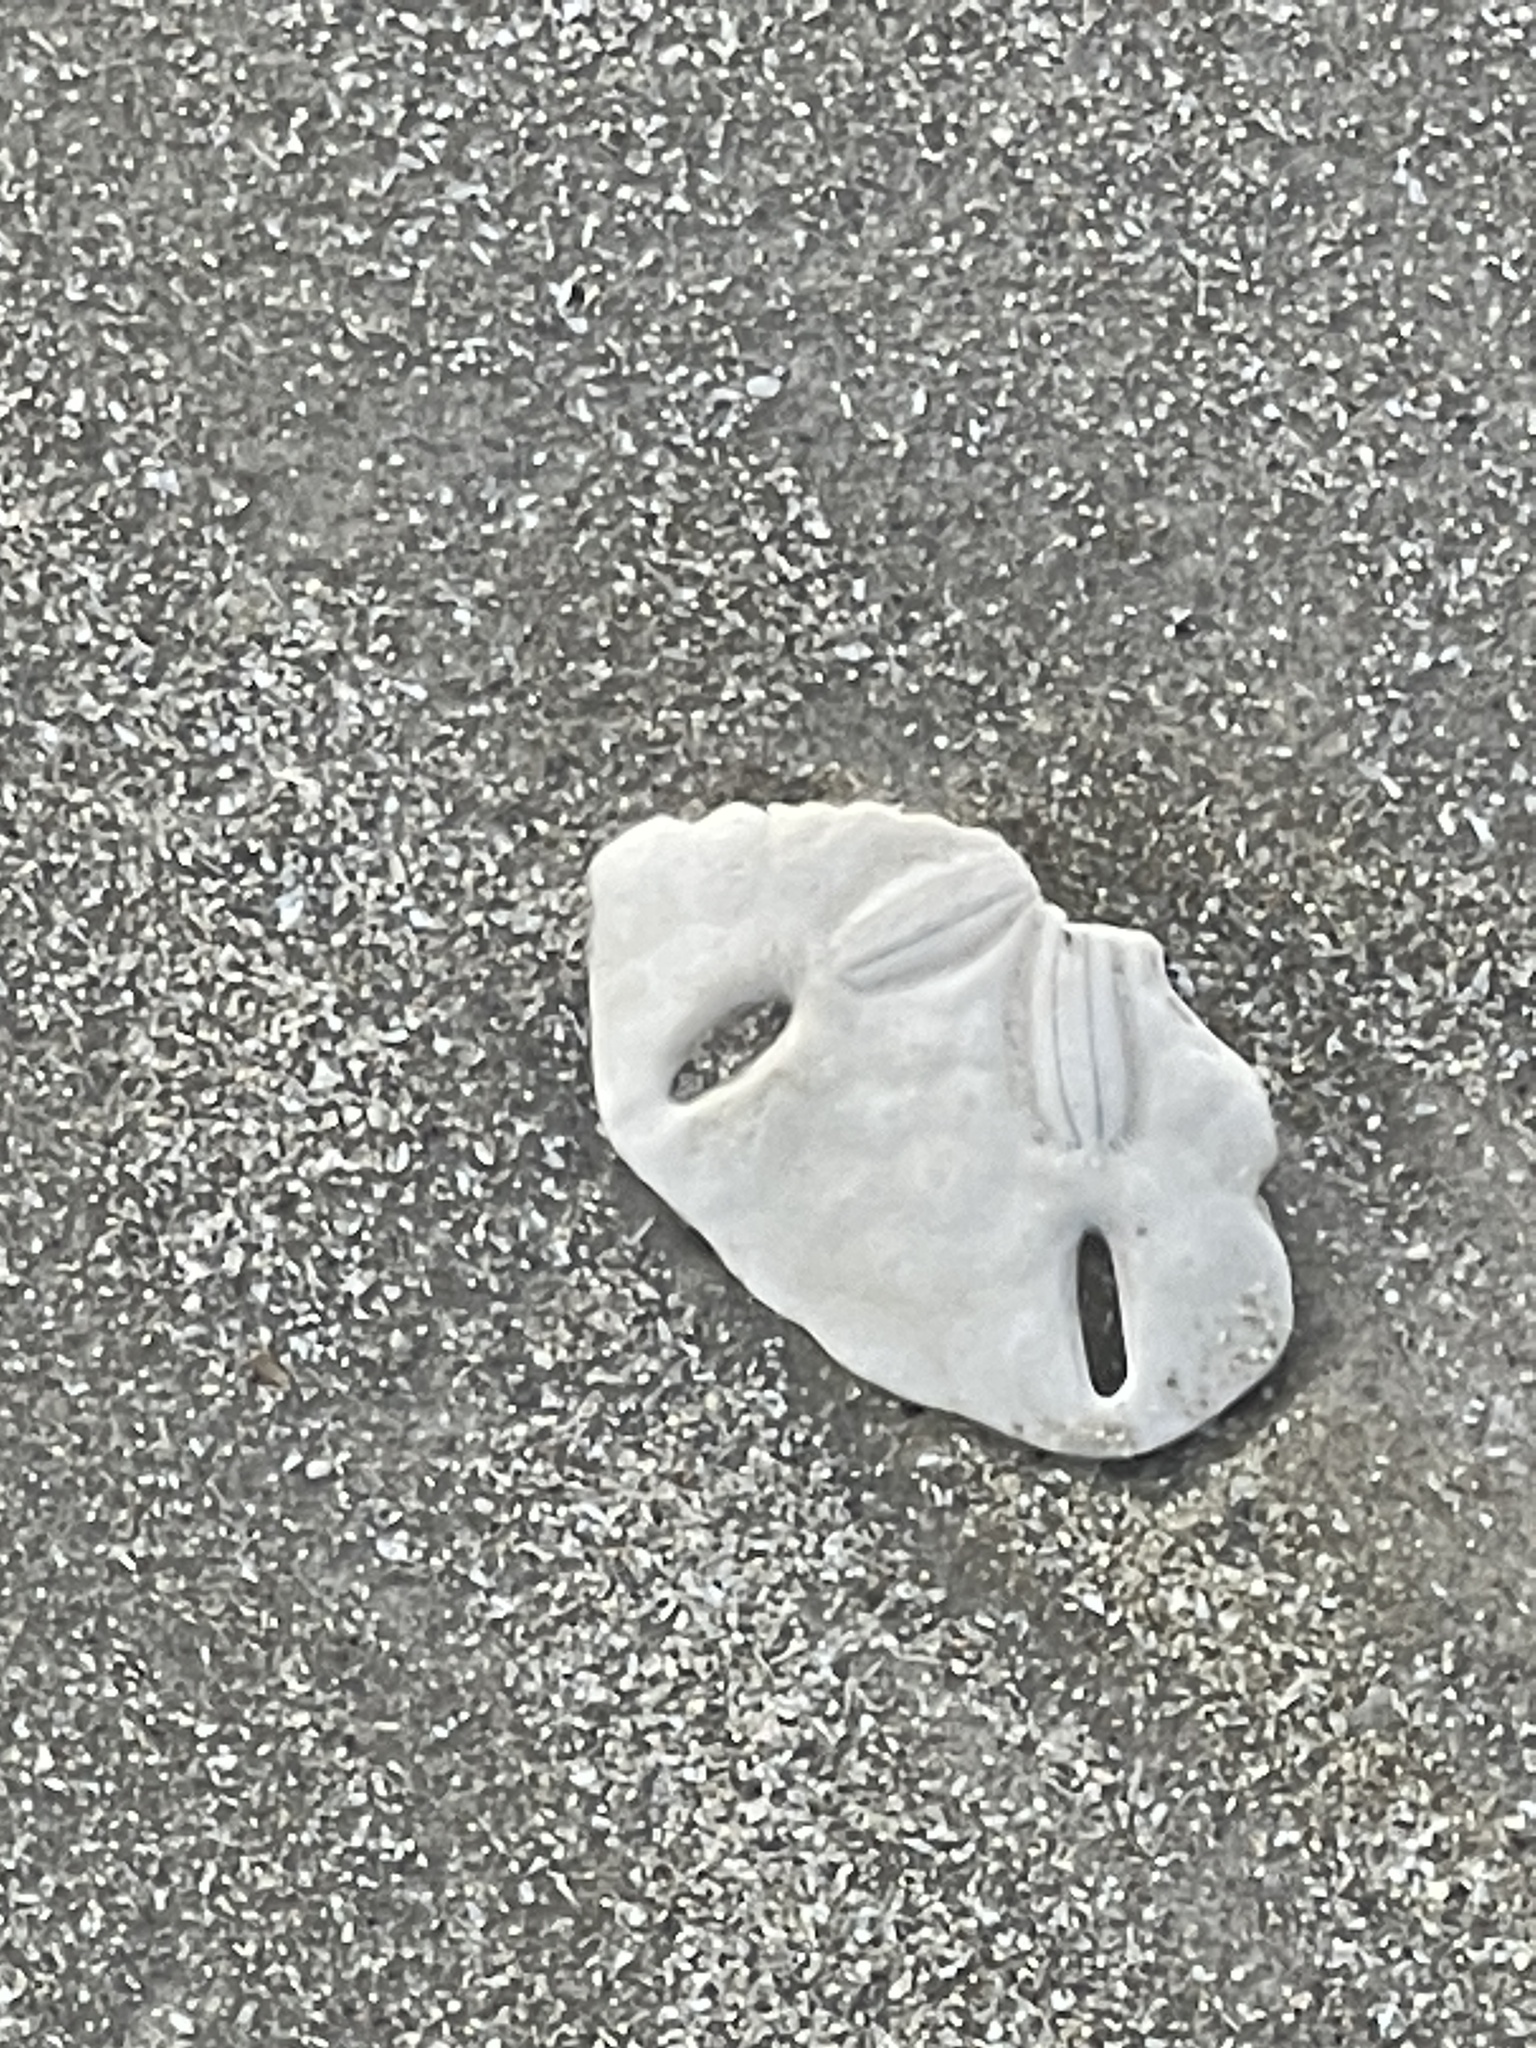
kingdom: Animalia
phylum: Echinodermata
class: Echinoidea
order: Echinolampadacea
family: Mellitidae
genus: Mellita
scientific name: Mellita quinquiesperforata
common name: Sand dollar
